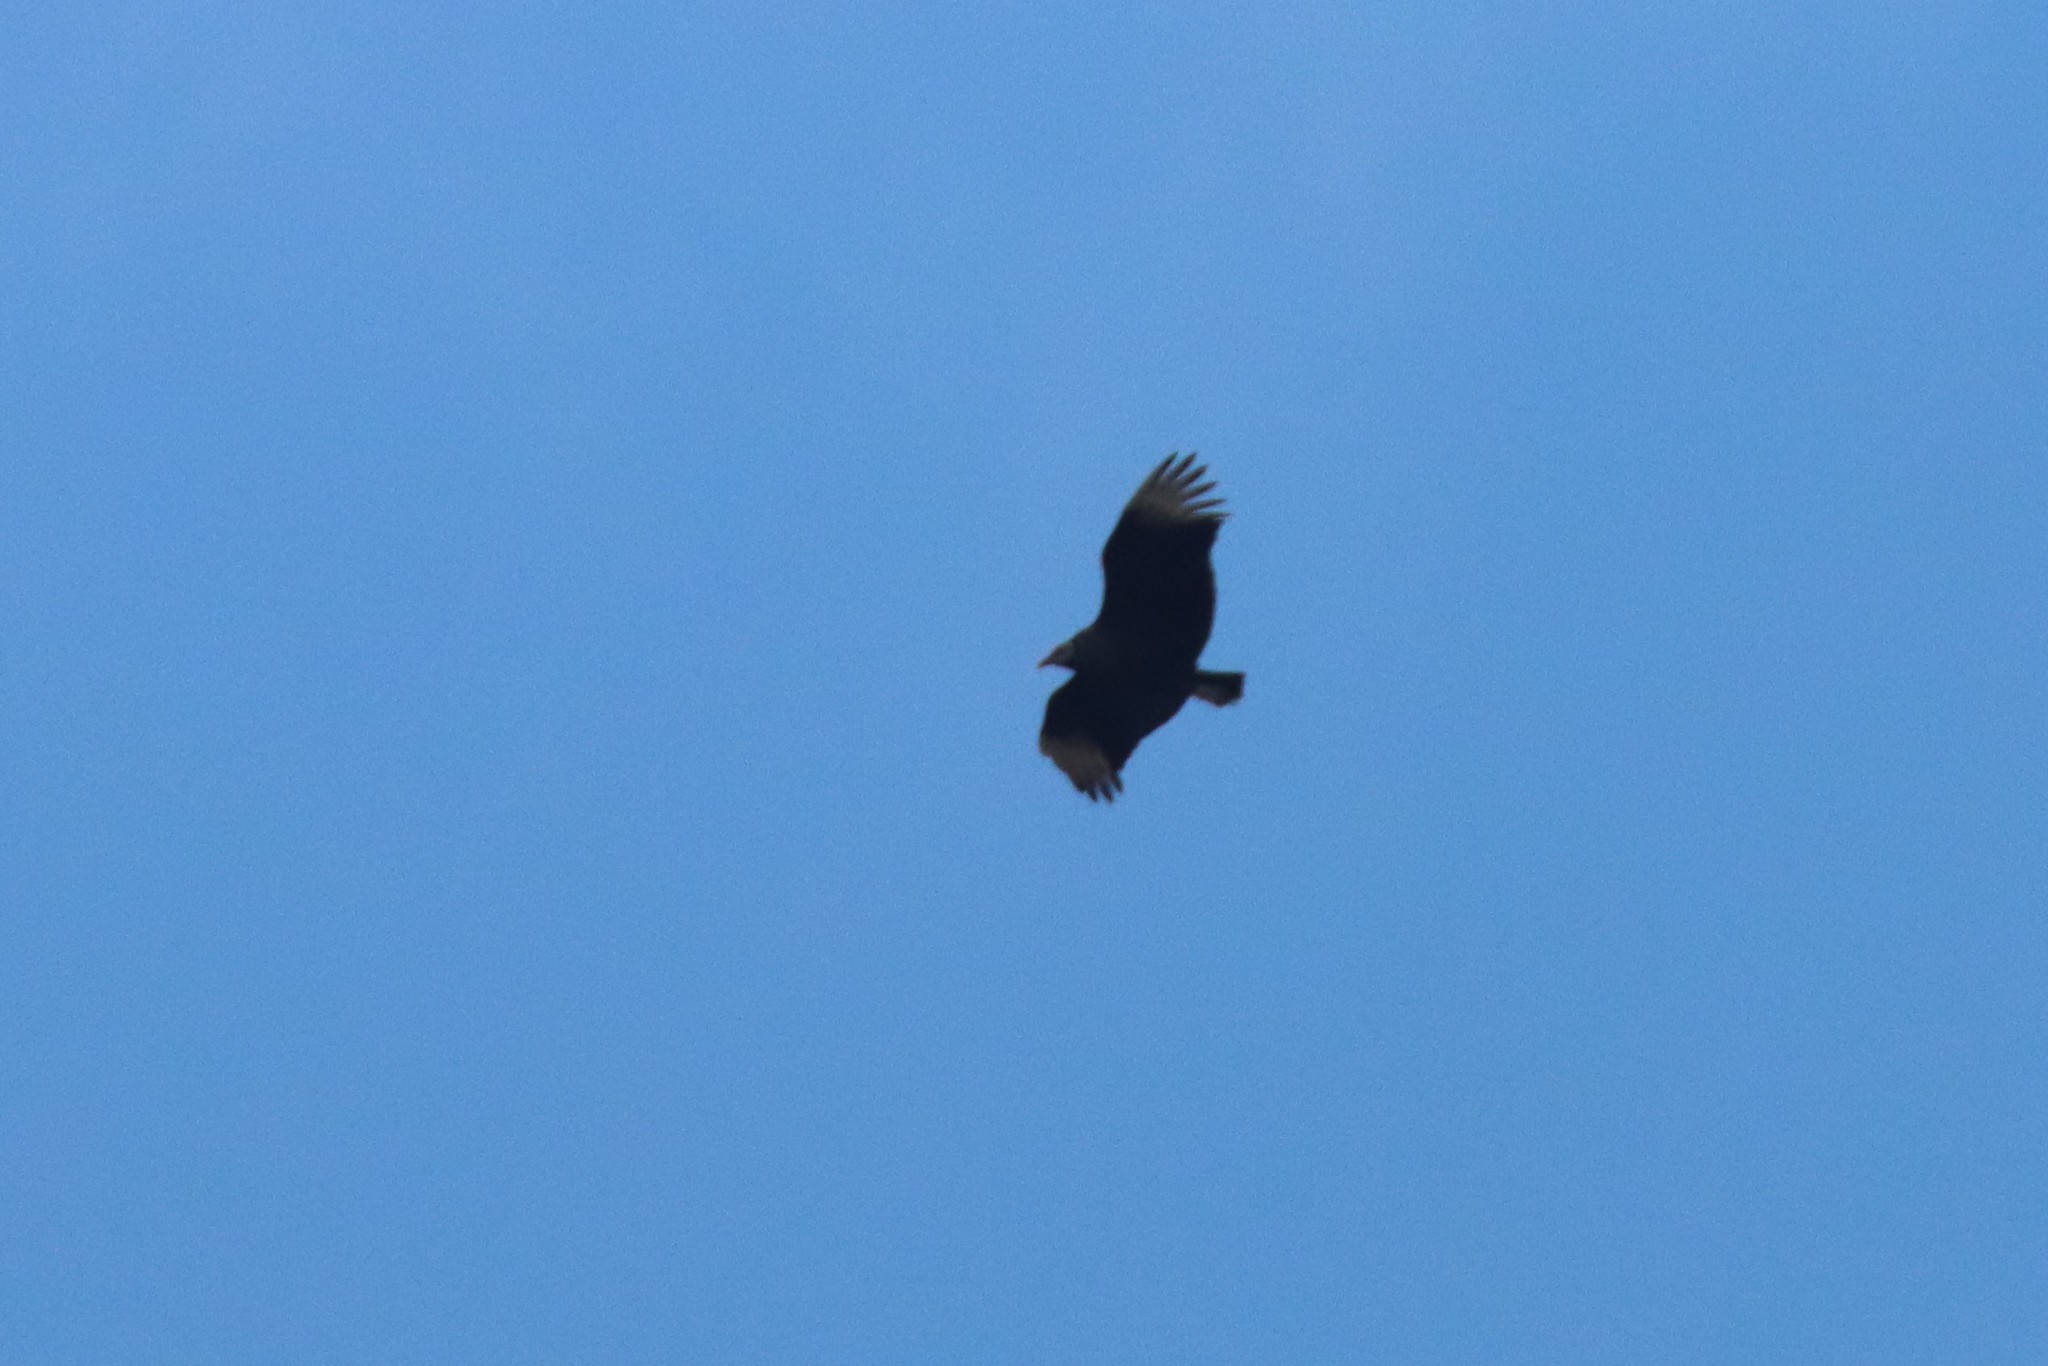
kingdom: Animalia
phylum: Chordata
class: Aves
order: Accipitriformes
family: Cathartidae
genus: Coragyps
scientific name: Coragyps atratus
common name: Black vulture
